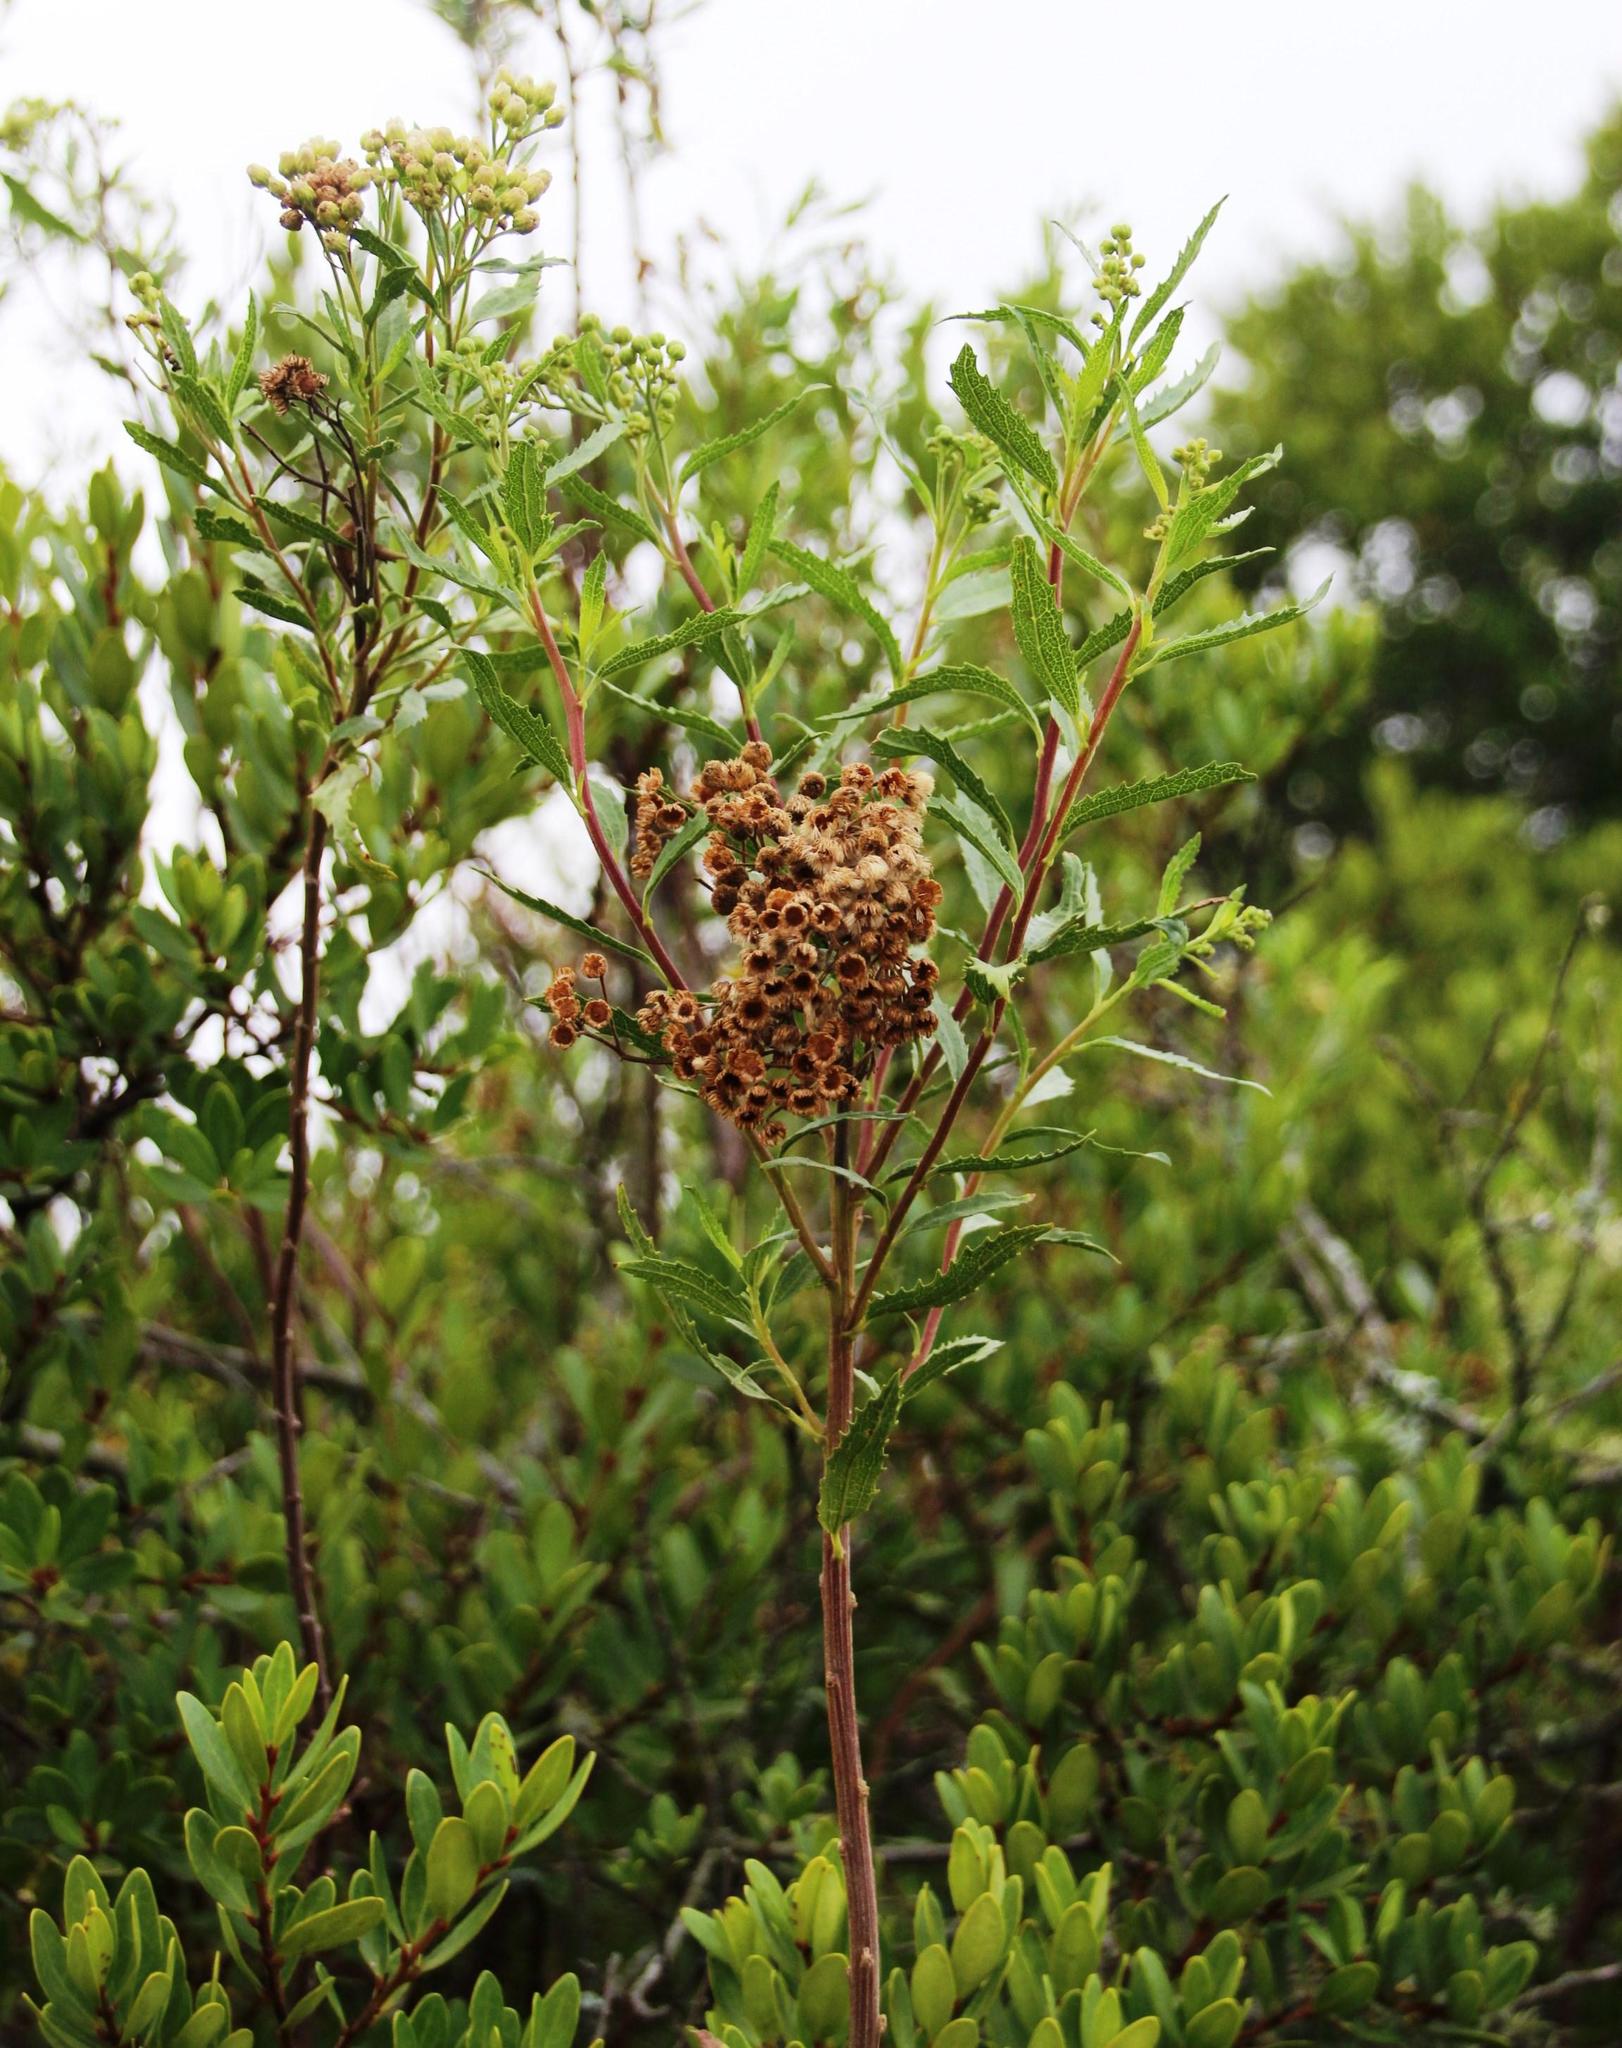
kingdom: Plantae
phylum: Tracheophyta
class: Magnoliopsida
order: Asterales
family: Asteraceae
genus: Nidorella
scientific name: Nidorella ivifolia
